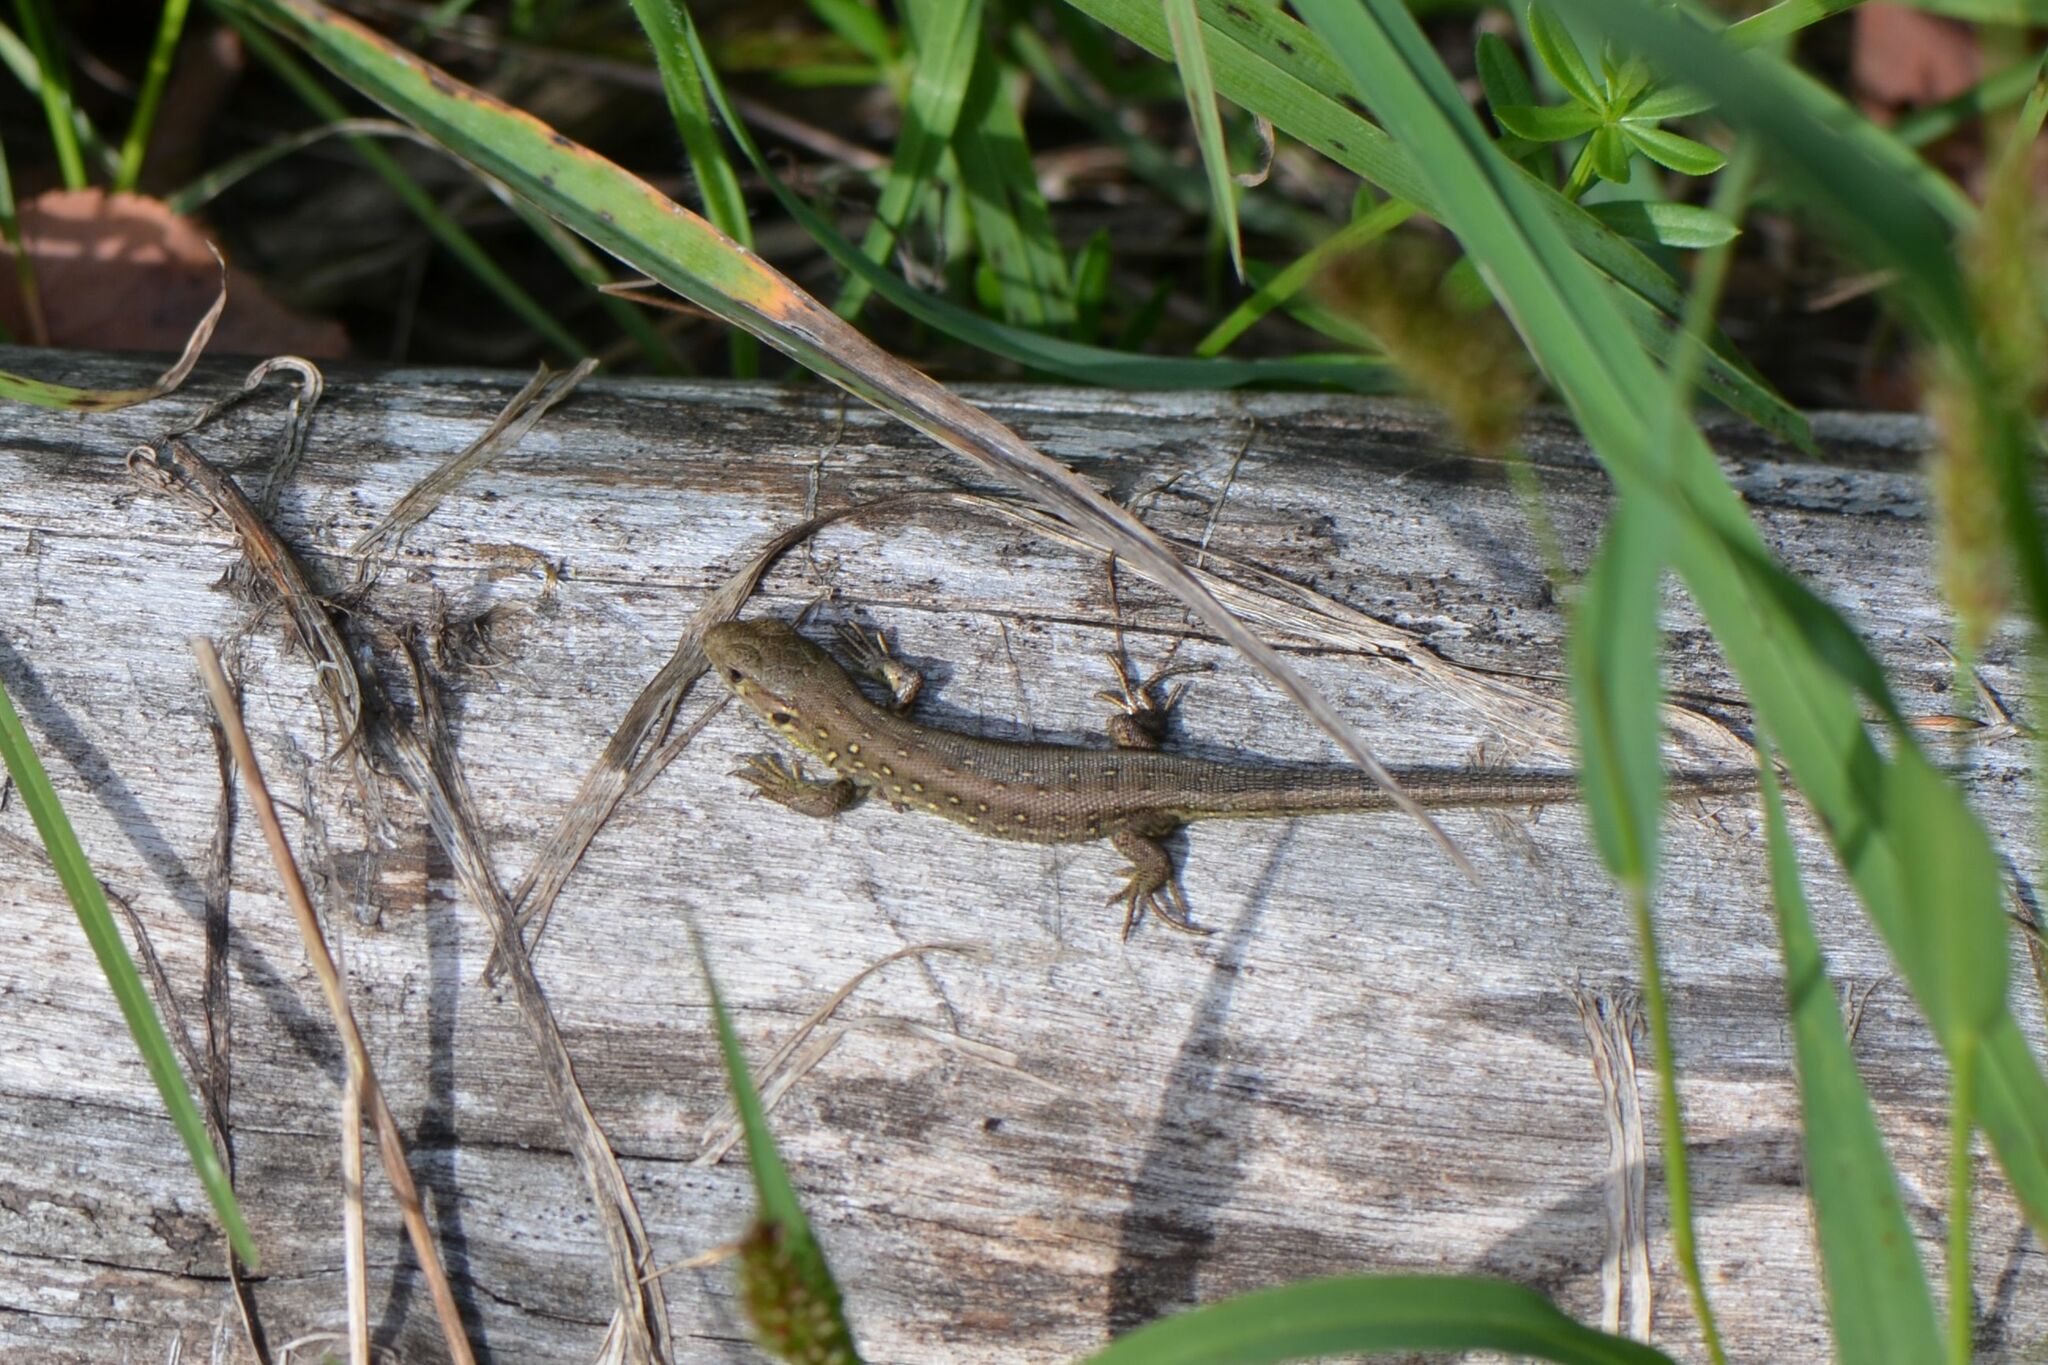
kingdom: Animalia
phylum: Chordata
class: Squamata
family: Lacertidae
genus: Lacerta
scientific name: Lacerta agilis
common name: Sand lizard
